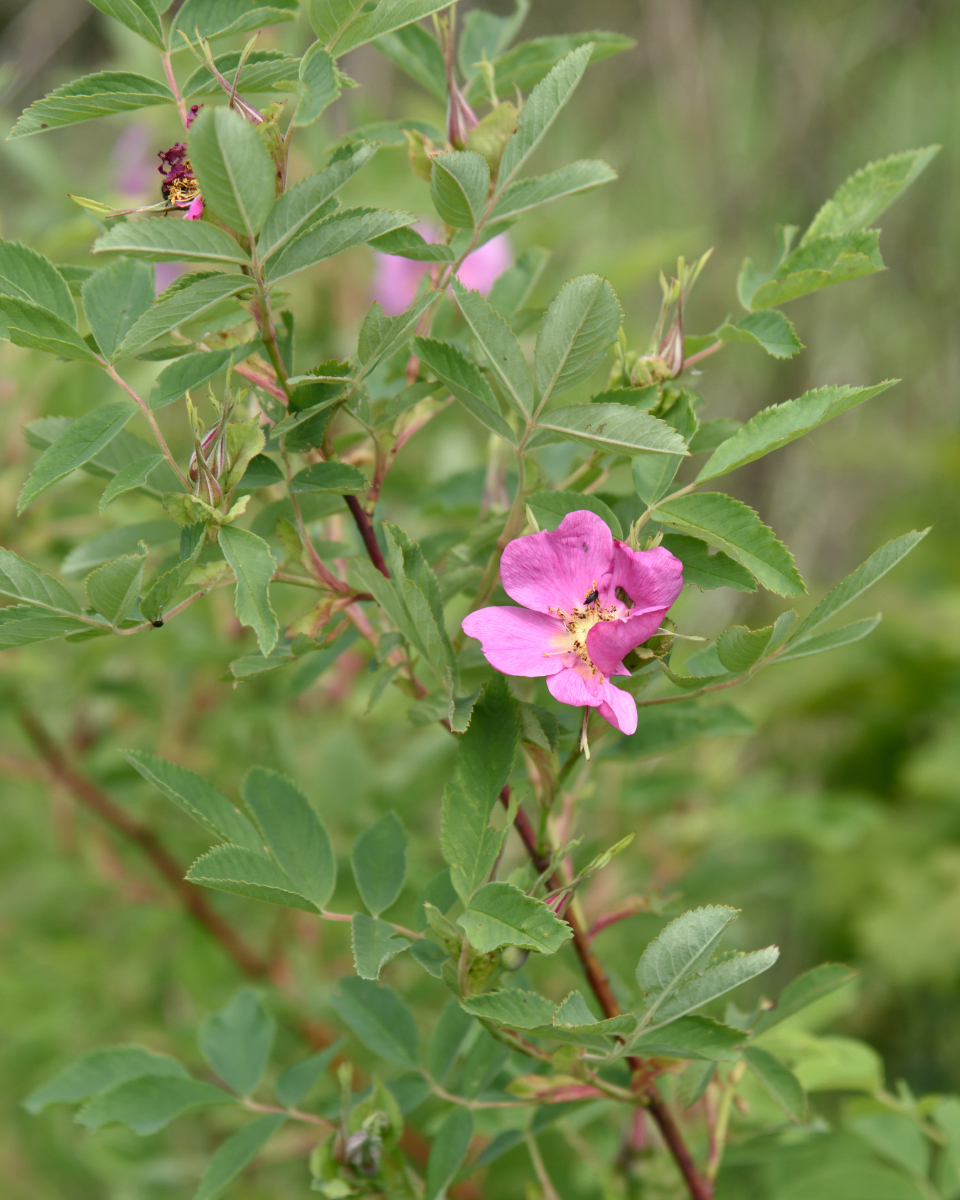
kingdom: Plantae
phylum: Tracheophyta
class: Magnoliopsida
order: Rosales
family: Rosaceae
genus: Rosa
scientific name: Rosa majalis
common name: Cinnamon rose
